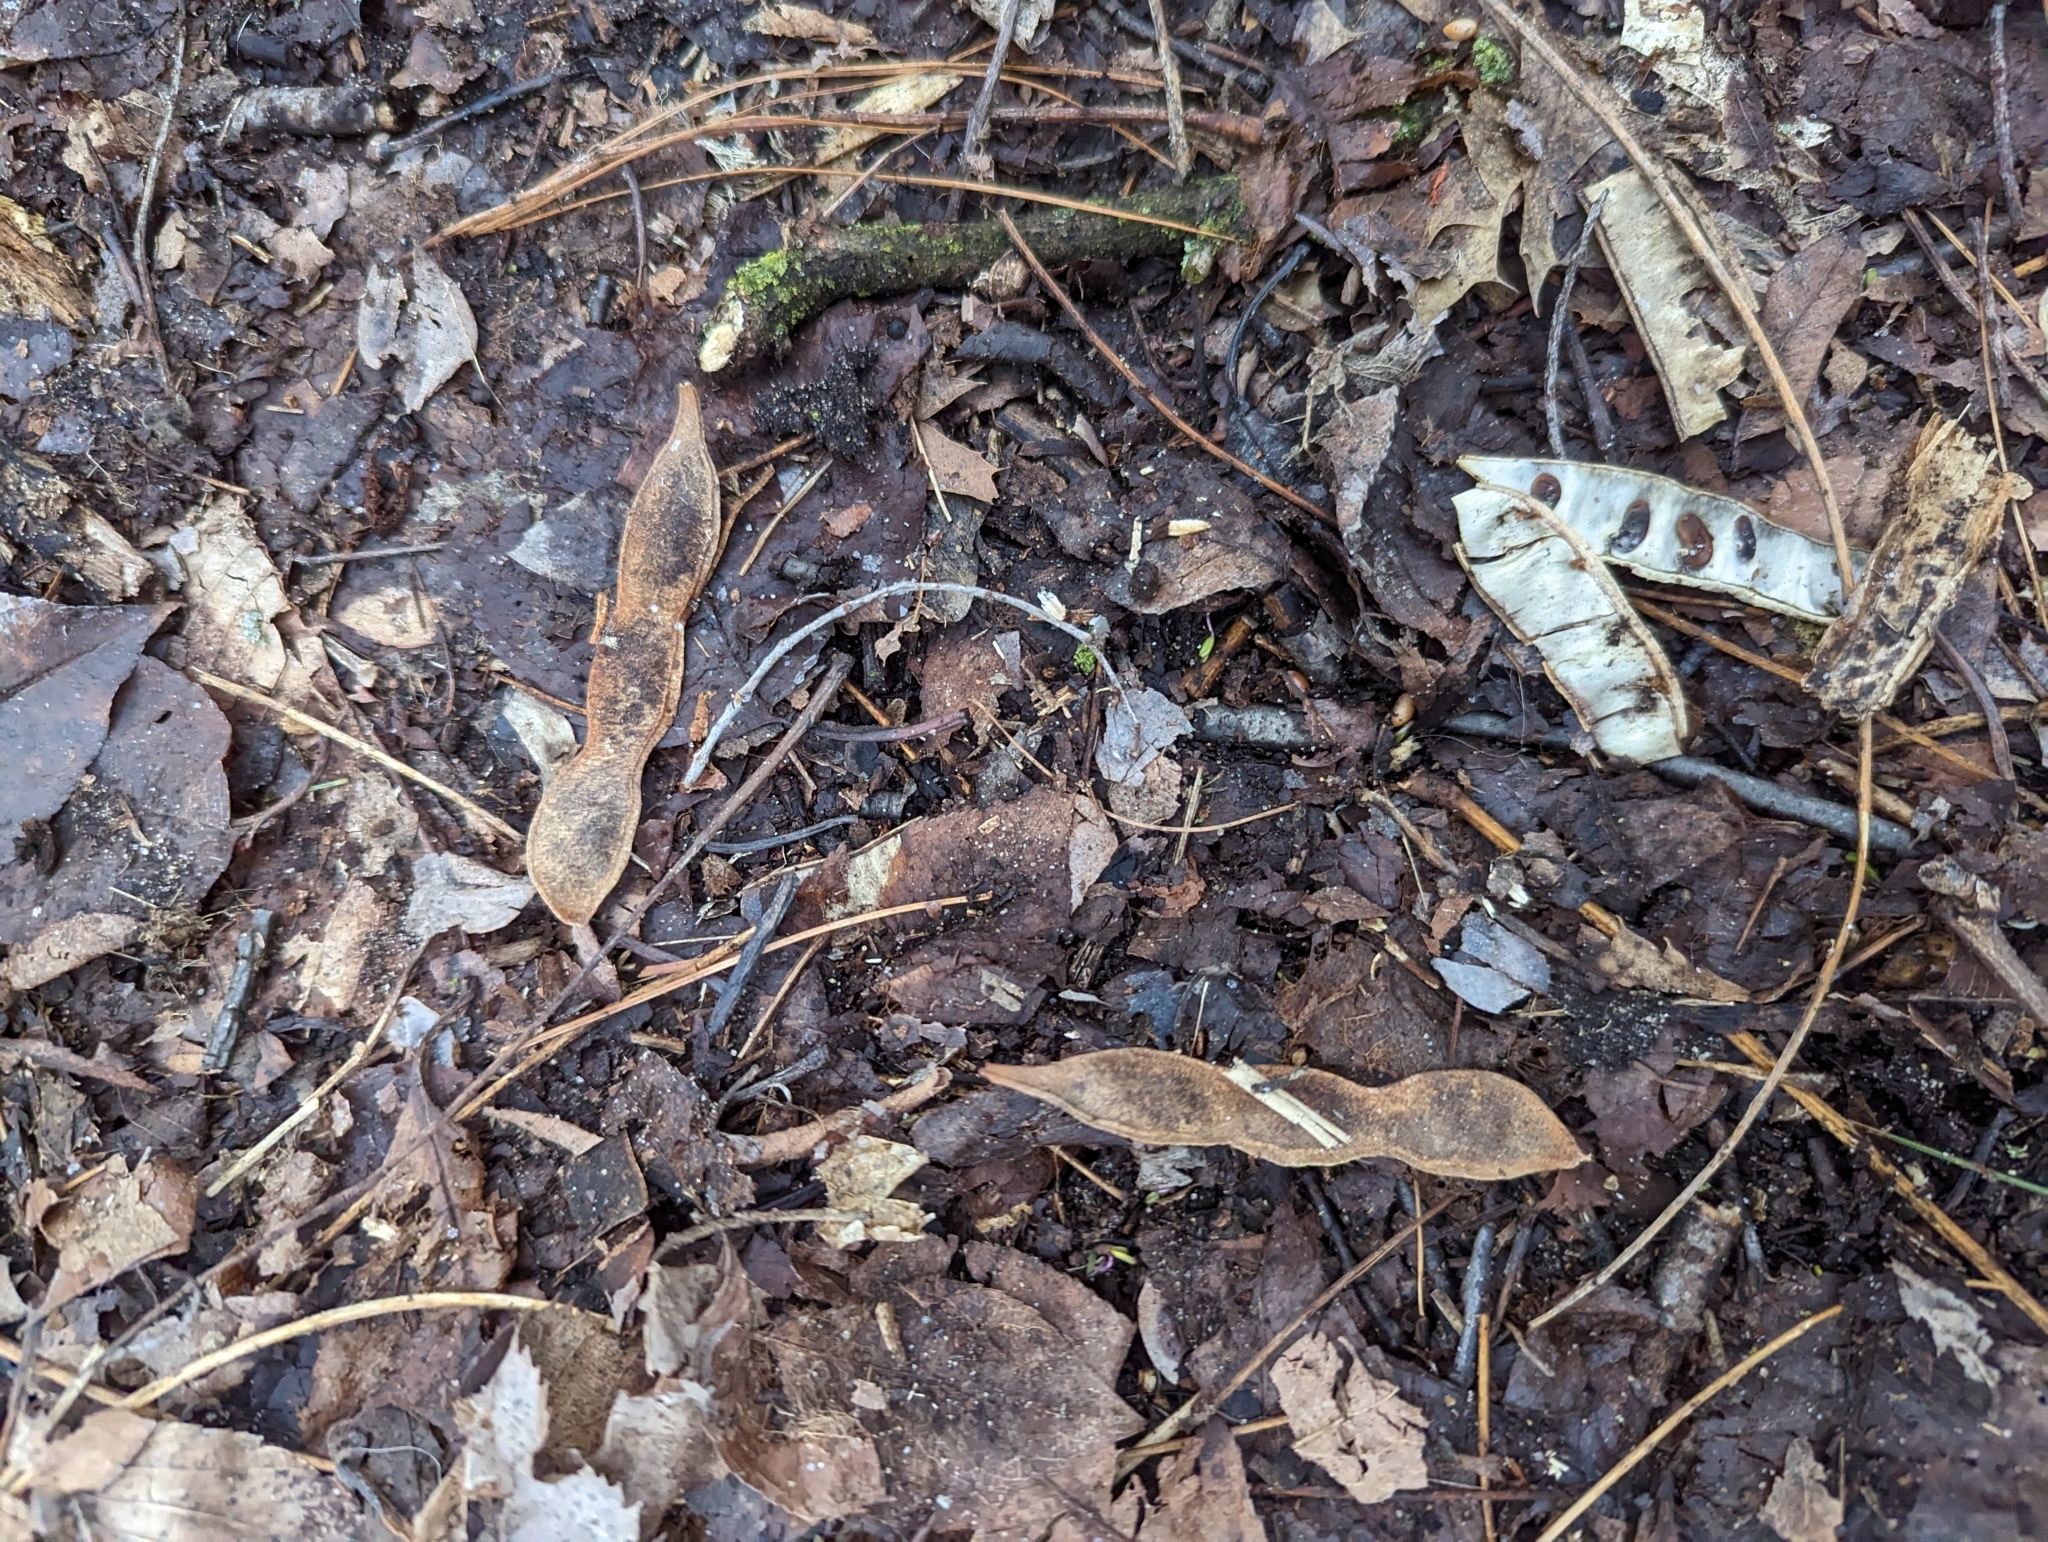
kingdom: Plantae
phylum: Tracheophyta
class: Magnoliopsida
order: Fabales
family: Fabaceae
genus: Robinia
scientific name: Robinia pseudoacacia
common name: Black locust
